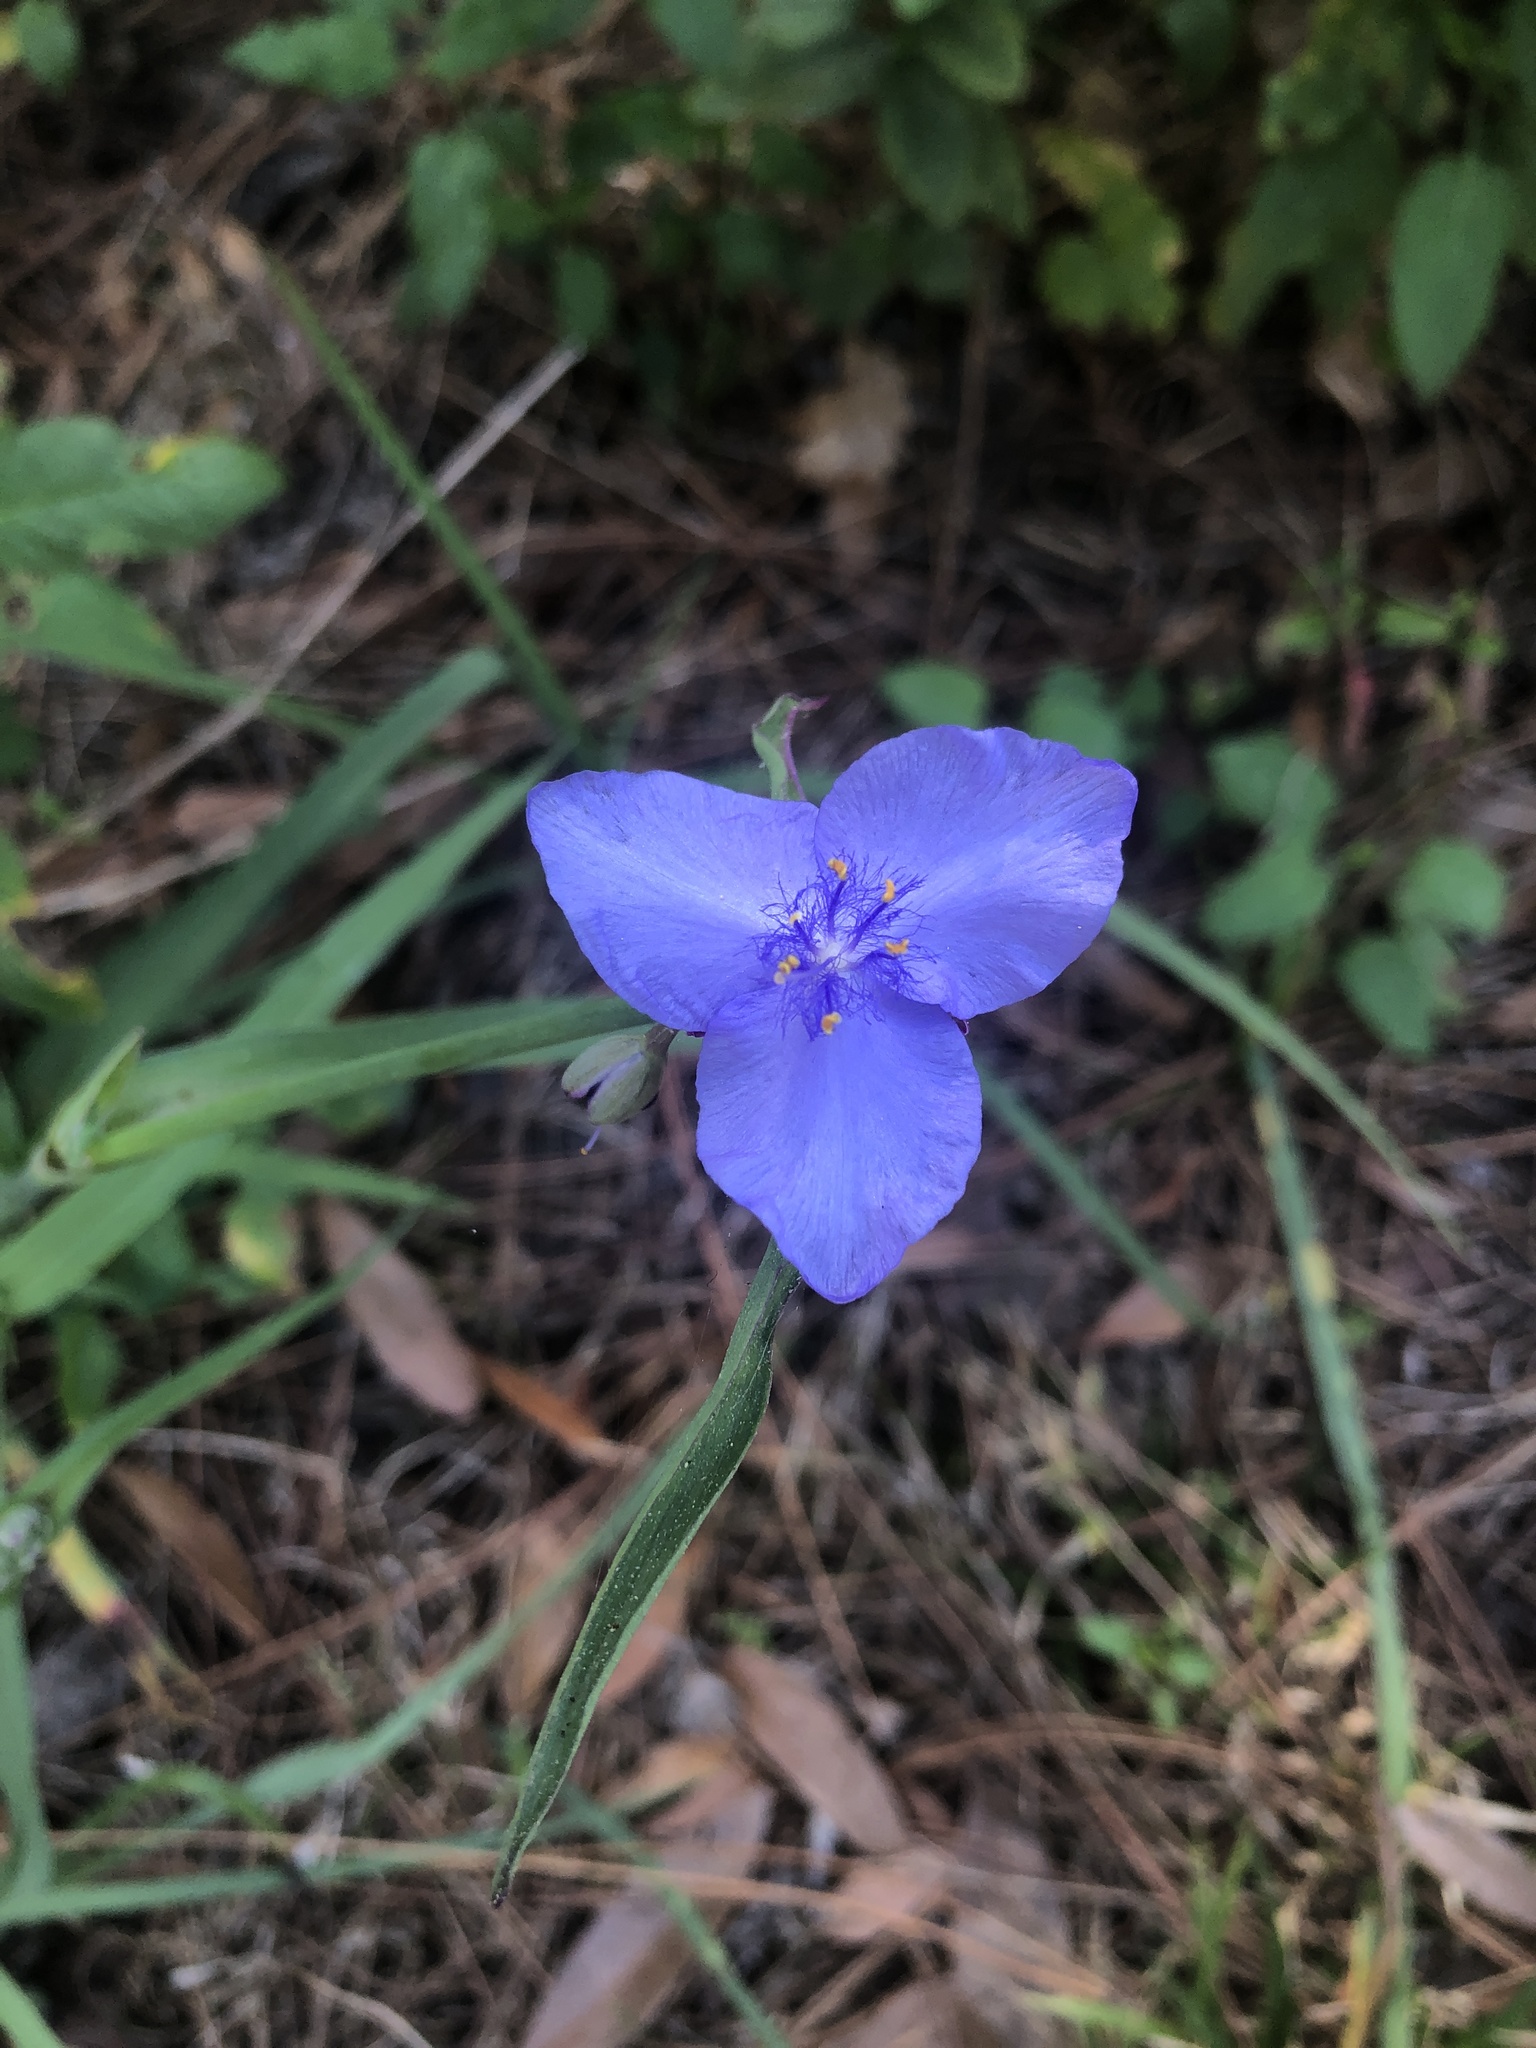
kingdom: Plantae
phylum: Tracheophyta
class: Liliopsida
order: Commelinales
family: Commelinaceae
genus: Tradescantia
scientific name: Tradescantia ohiensis
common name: Ohio spiderwort
